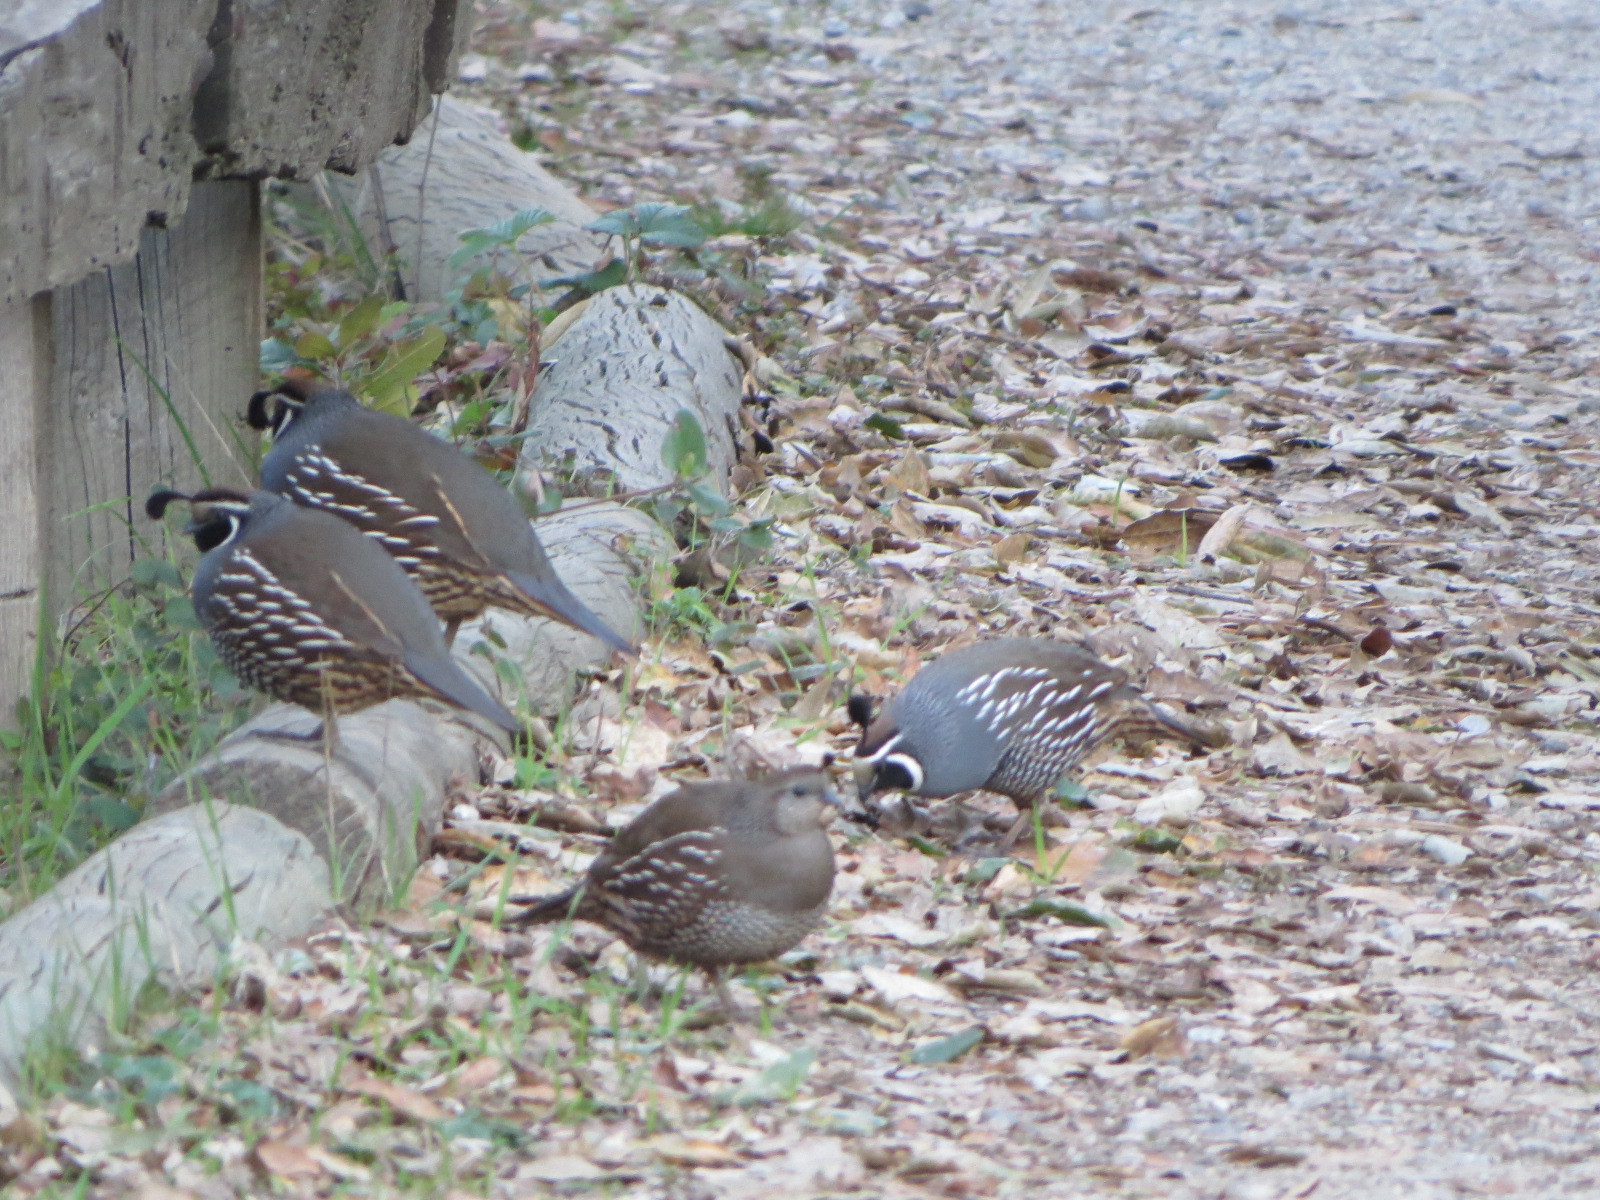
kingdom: Animalia
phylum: Chordata
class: Aves
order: Galliformes
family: Odontophoridae
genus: Callipepla
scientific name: Callipepla californica
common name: California quail
